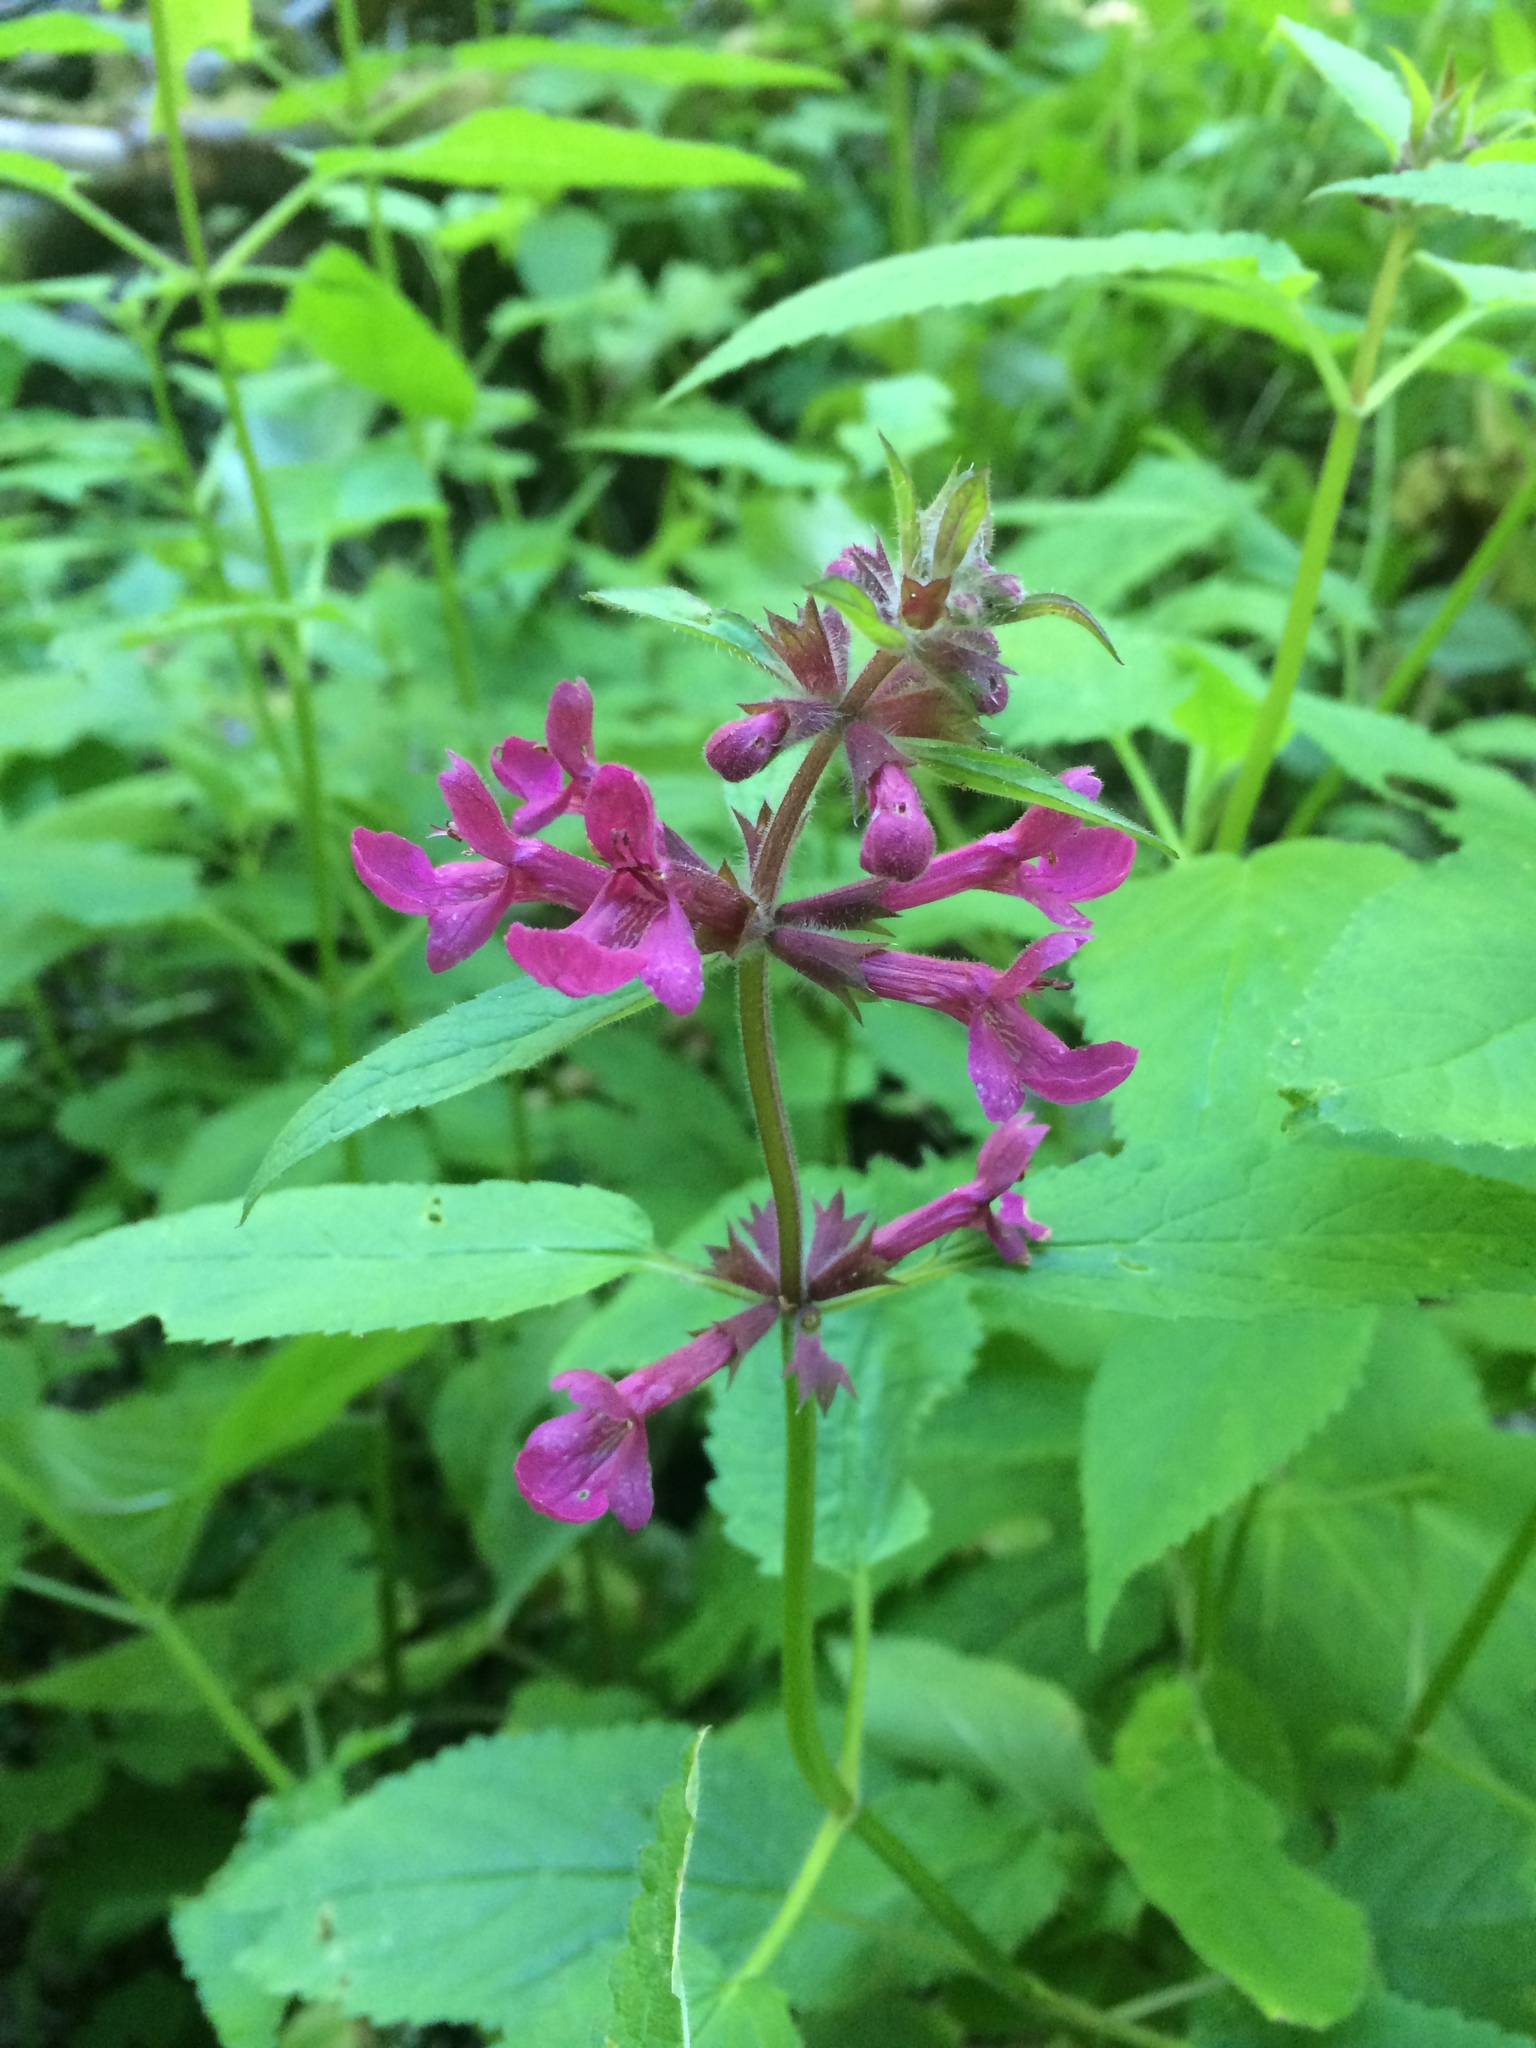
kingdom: Plantae
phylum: Tracheophyta
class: Magnoliopsida
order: Lamiales
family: Lamiaceae
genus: Stachys
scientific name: Stachys chamissonis
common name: Coastal hedge-nettle
